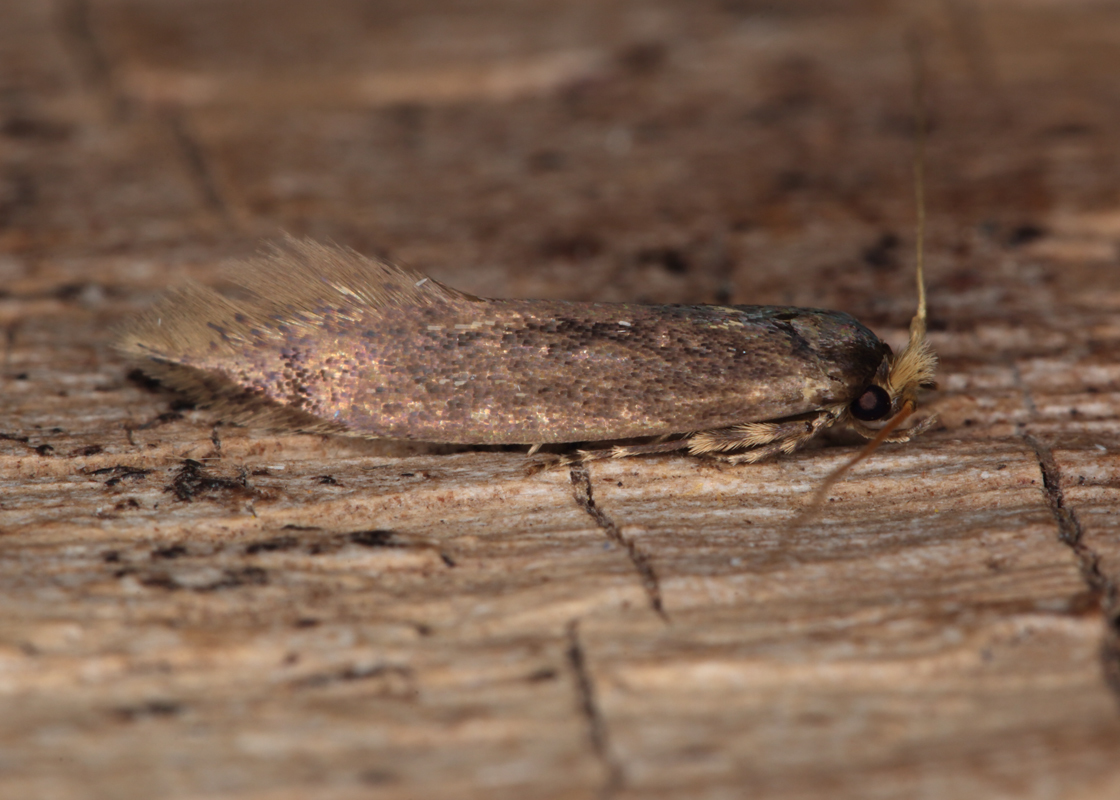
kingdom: Animalia
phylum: Arthropoda
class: Insecta
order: Lepidoptera
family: Tineidae
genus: Opogona
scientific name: Opogona omoscopa
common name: Moth
